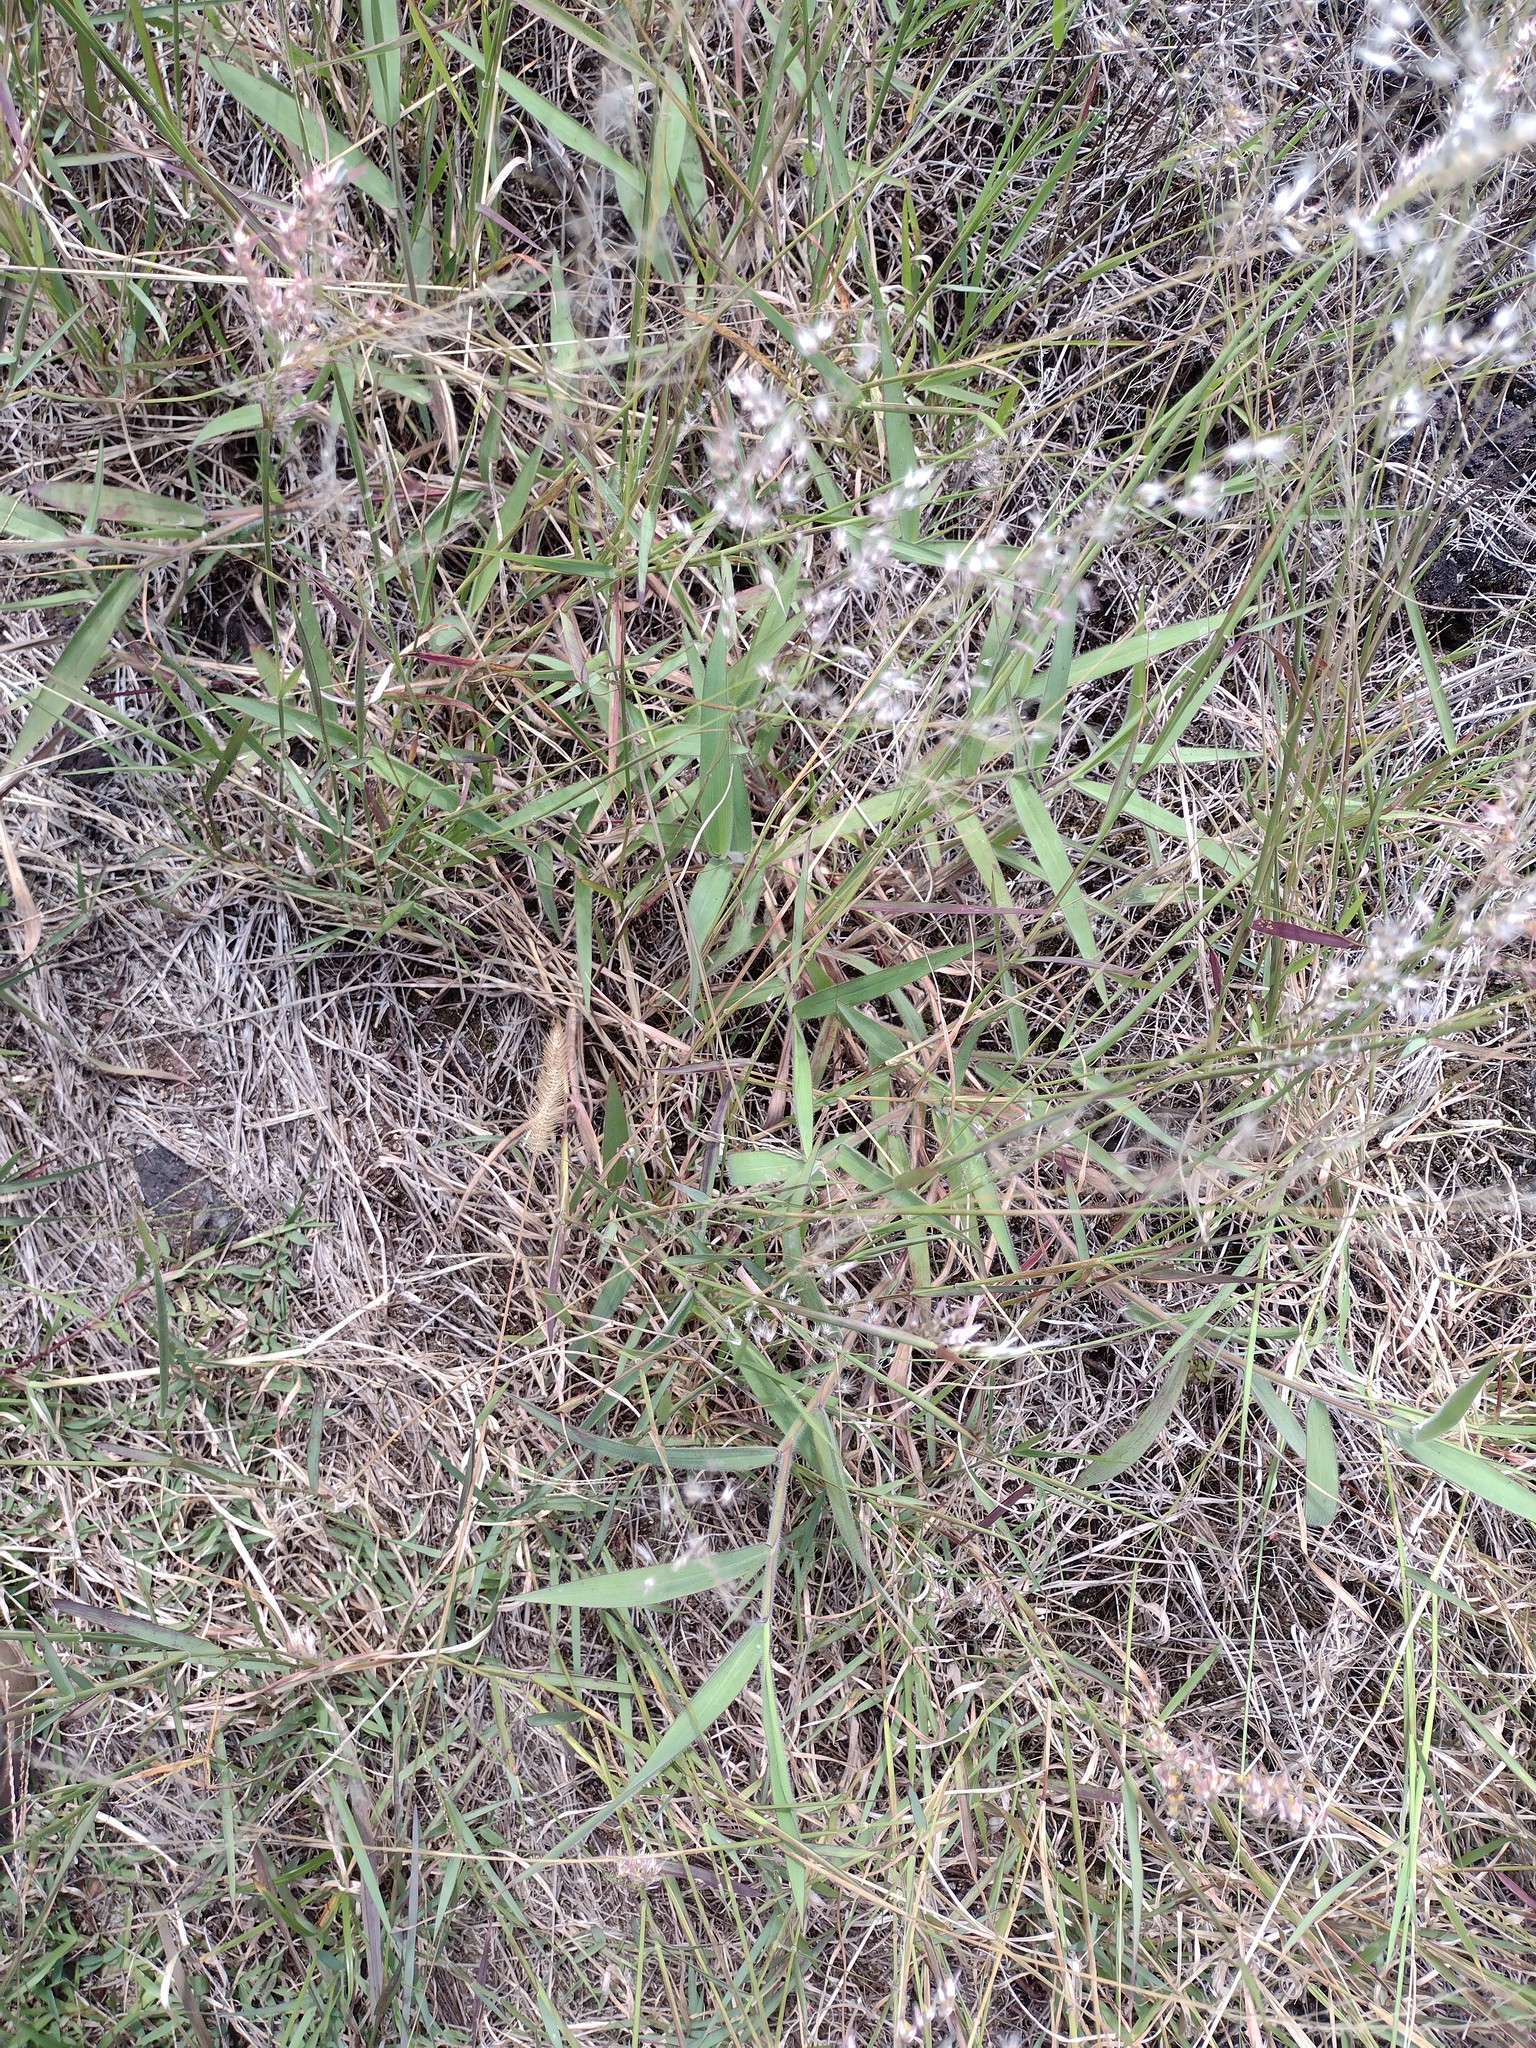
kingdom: Plantae
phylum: Tracheophyta
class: Liliopsida
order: Poales
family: Poaceae
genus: Melinis
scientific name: Melinis minutiflora
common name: Molassesgrass
